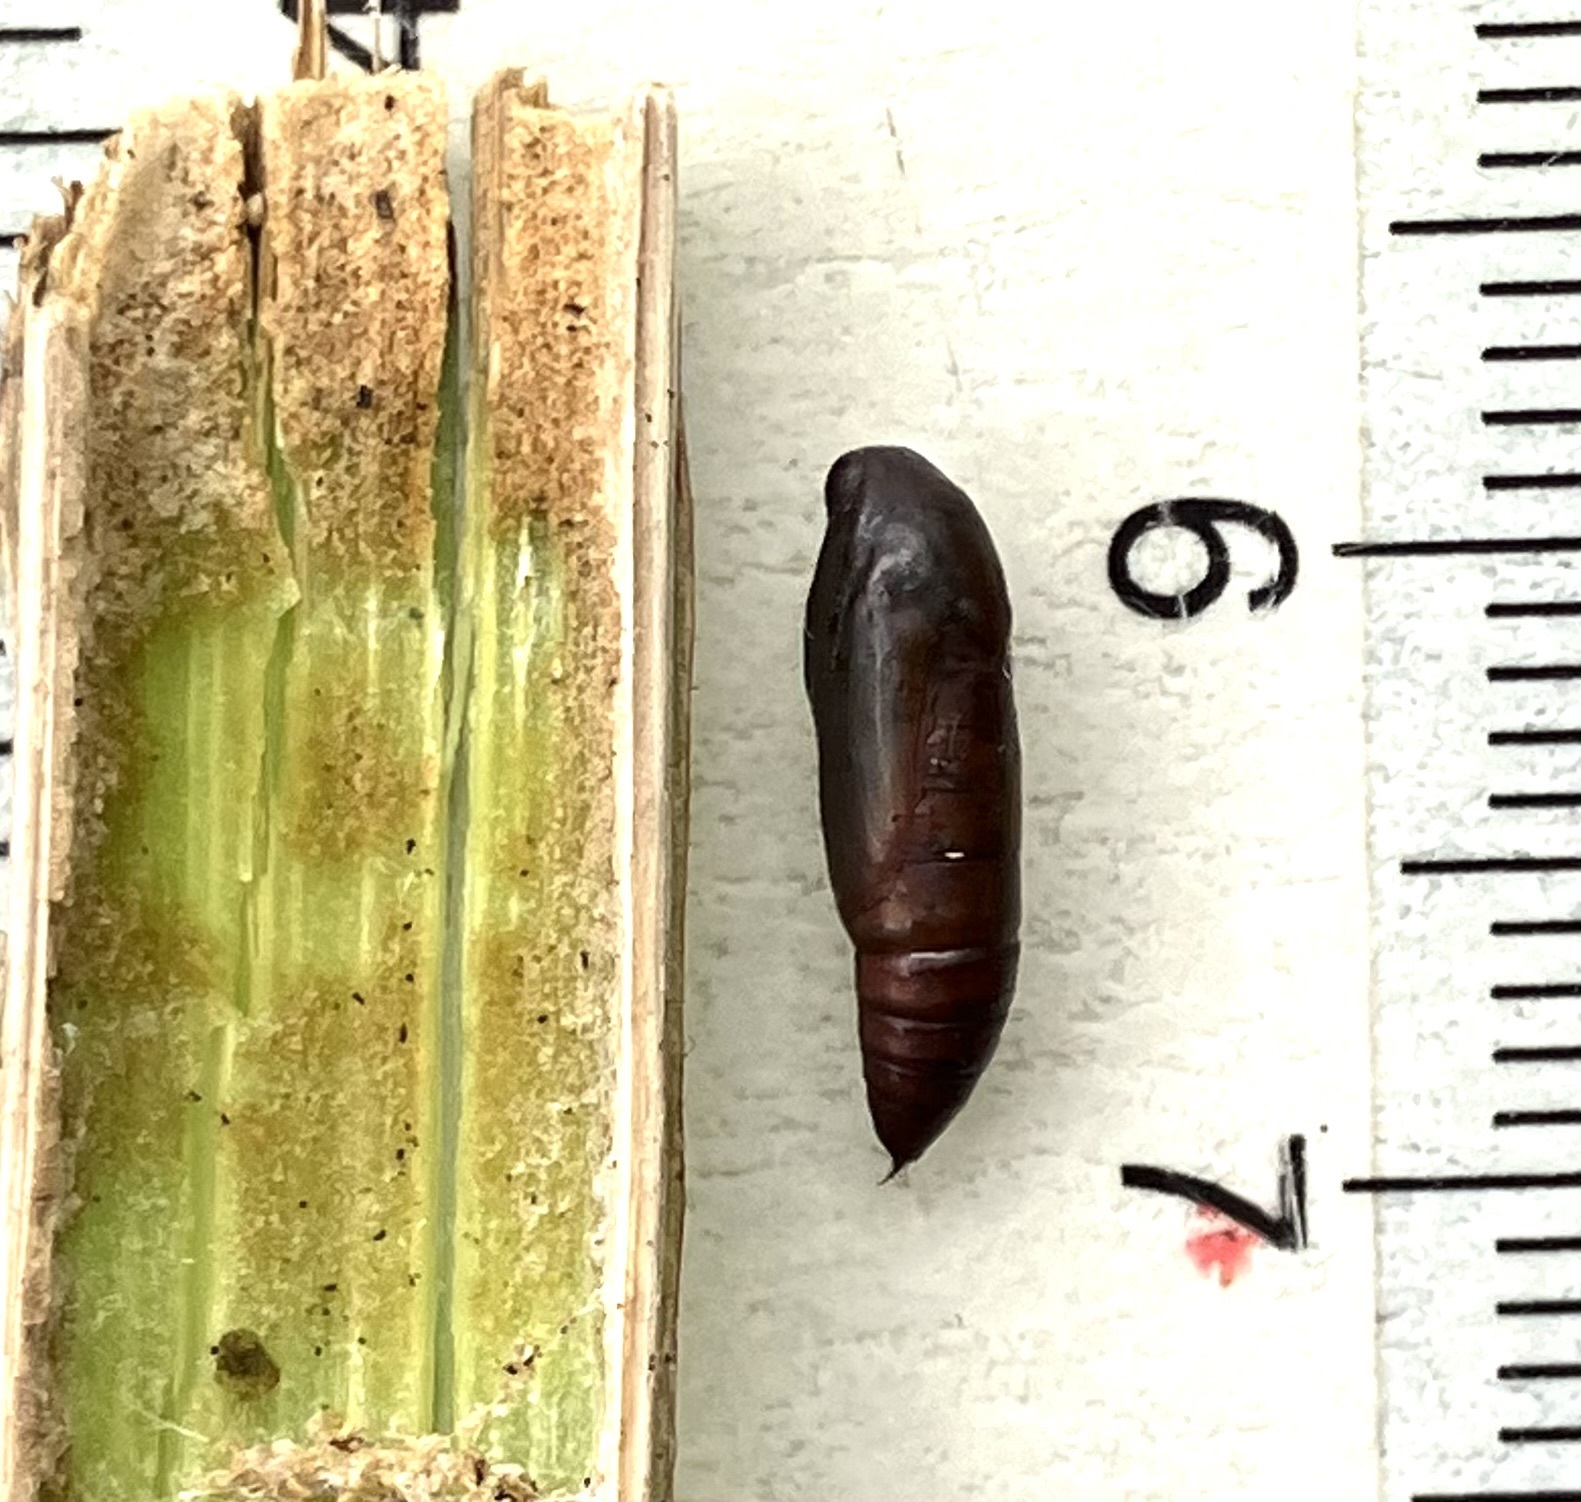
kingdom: Animalia
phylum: Arthropoda
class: Insecta
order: Lepidoptera
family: Erebidae
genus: Palthis
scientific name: Palthis asopialis
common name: Faint-spotted palthis moth
